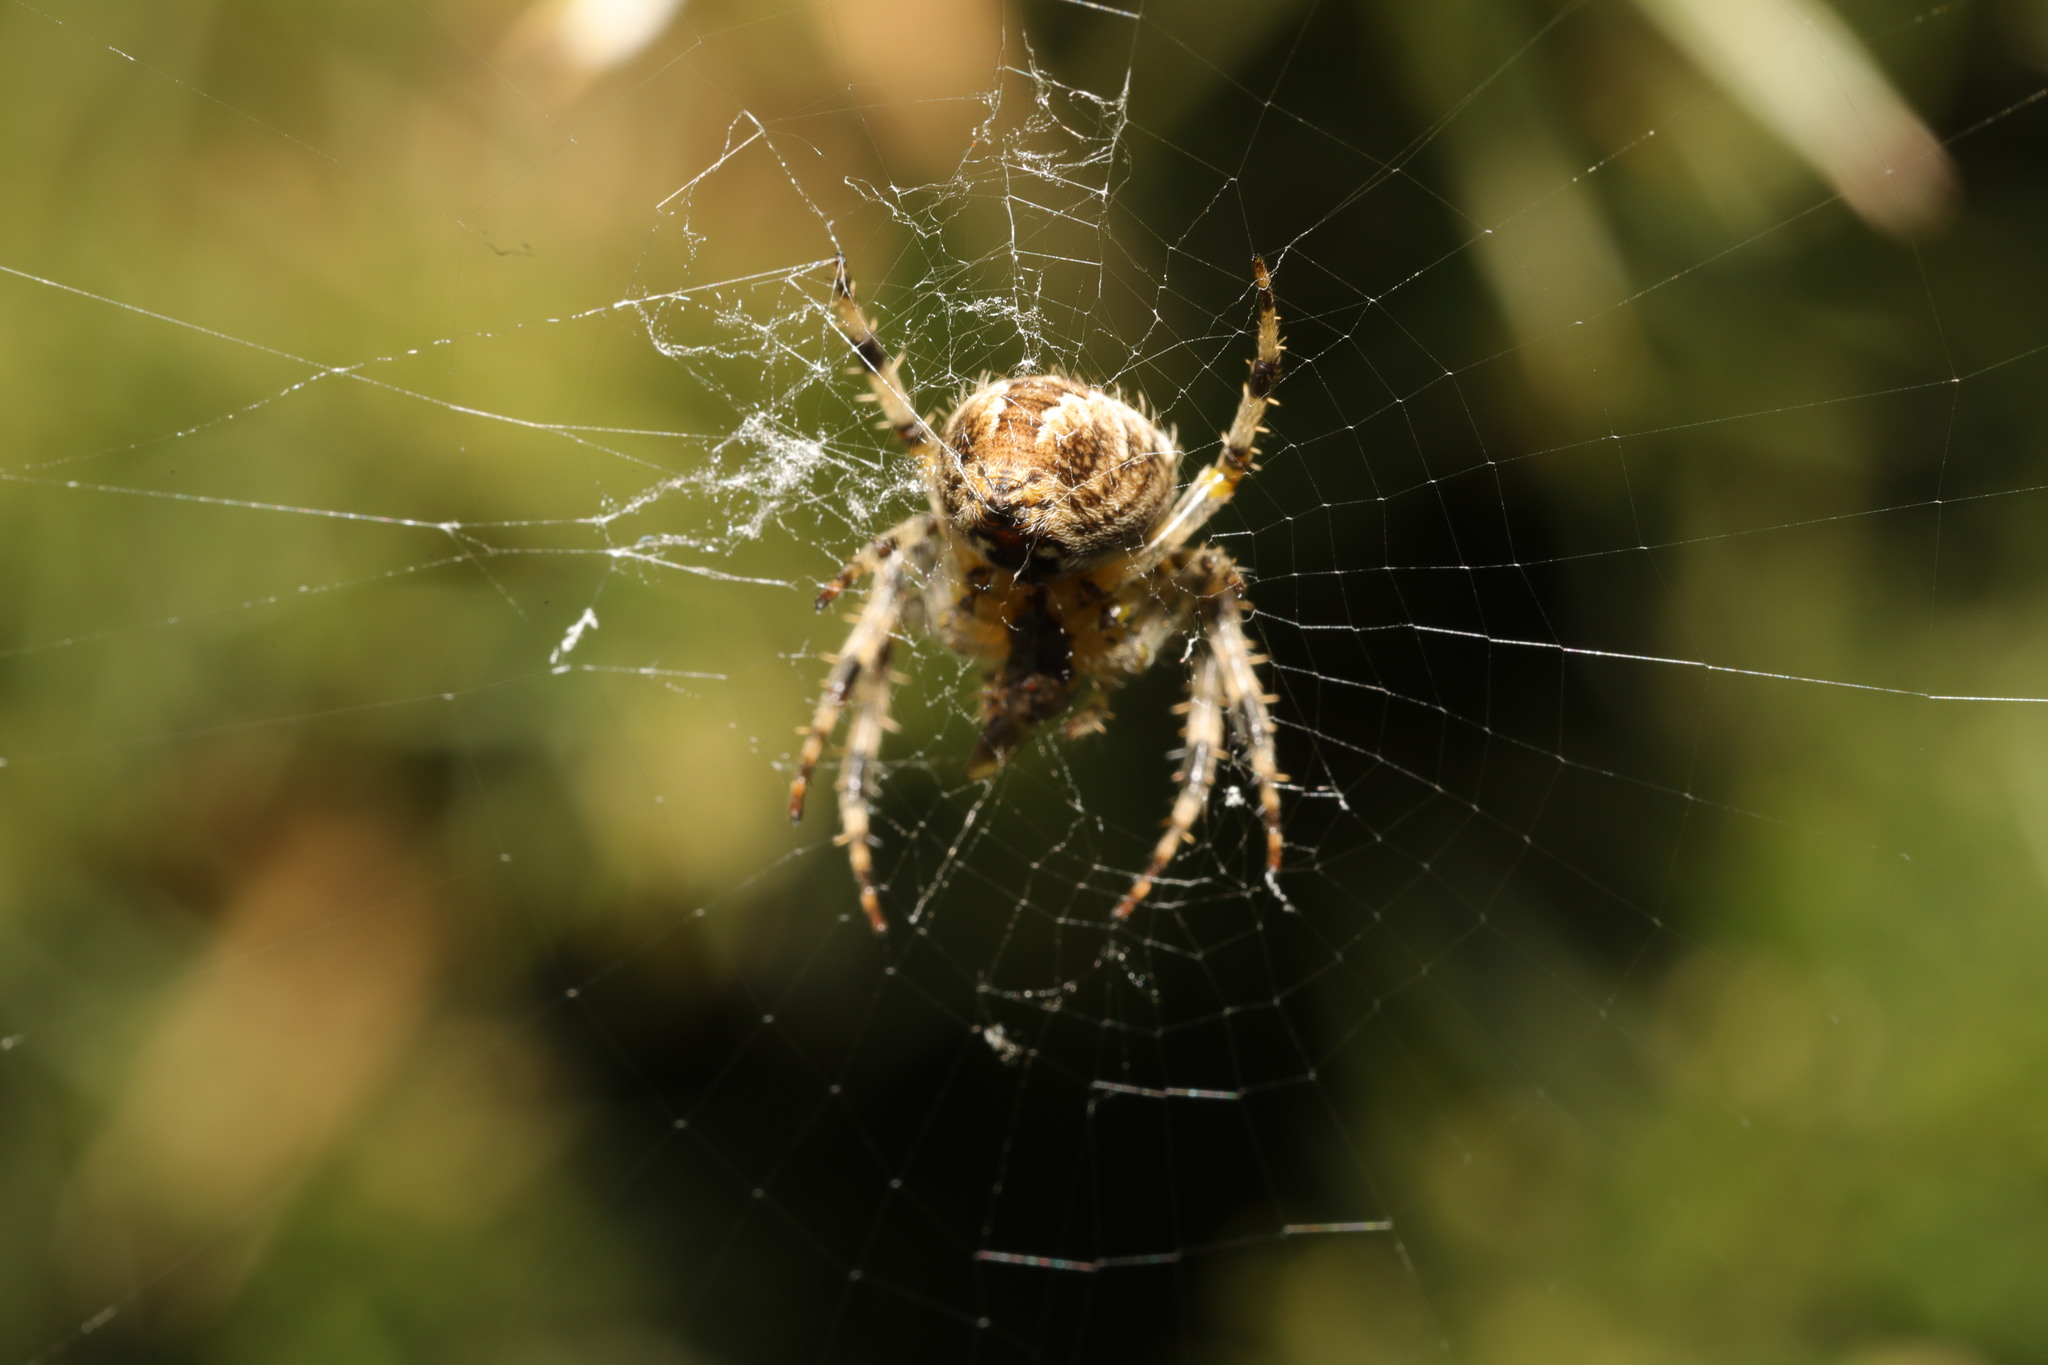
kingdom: Animalia
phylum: Arthropoda
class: Arachnida
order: Araneae
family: Araneidae
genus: Araneus
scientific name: Araneus diadematus
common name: Cross orbweaver
